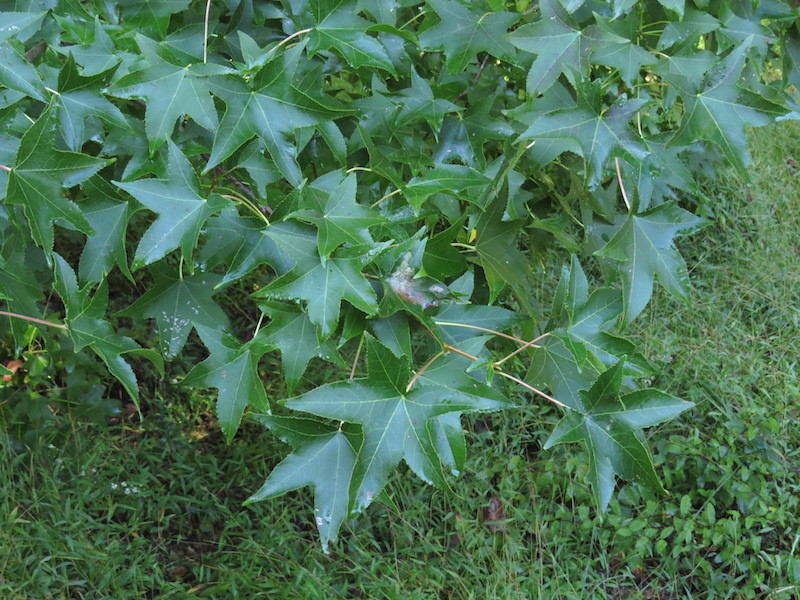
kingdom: Plantae
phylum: Tracheophyta
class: Magnoliopsida
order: Saxifragales
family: Altingiaceae
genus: Liquidambar
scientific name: Liquidambar styraciflua
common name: Sweet gum
